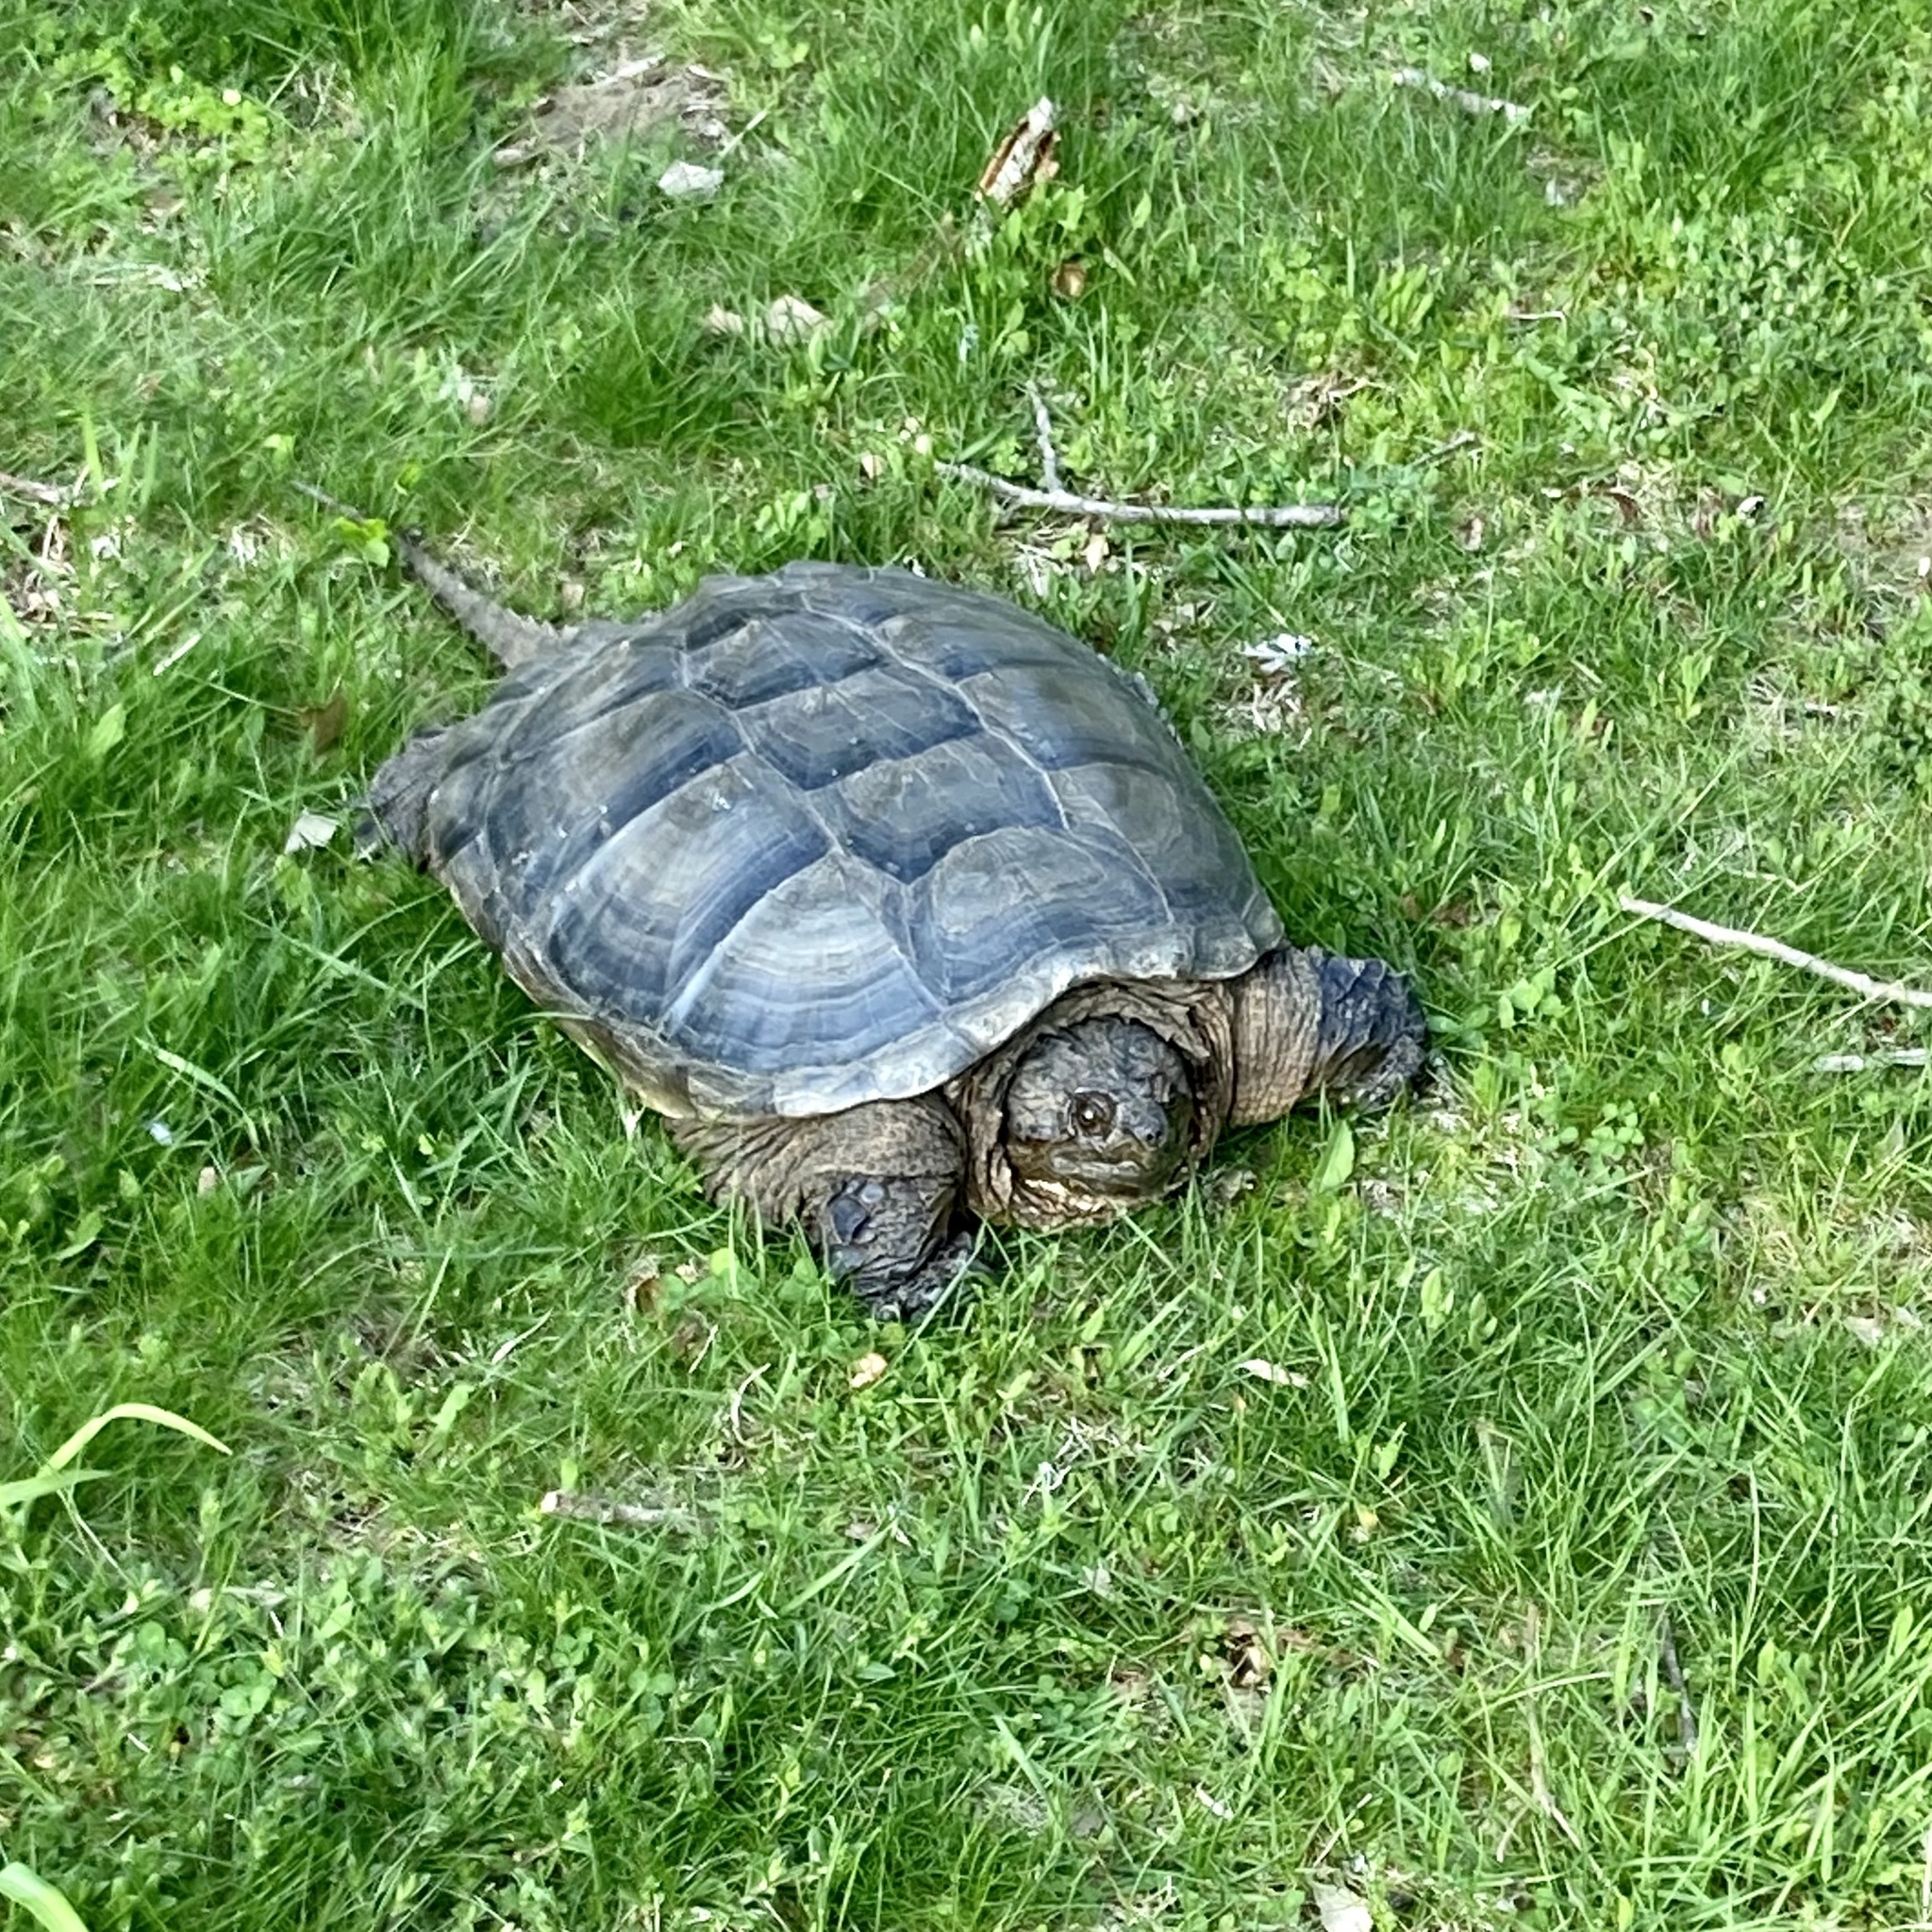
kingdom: Animalia
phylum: Chordata
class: Testudines
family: Chelydridae
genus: Chelydra
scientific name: Chelydra serpentina
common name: Common snapping turtle
